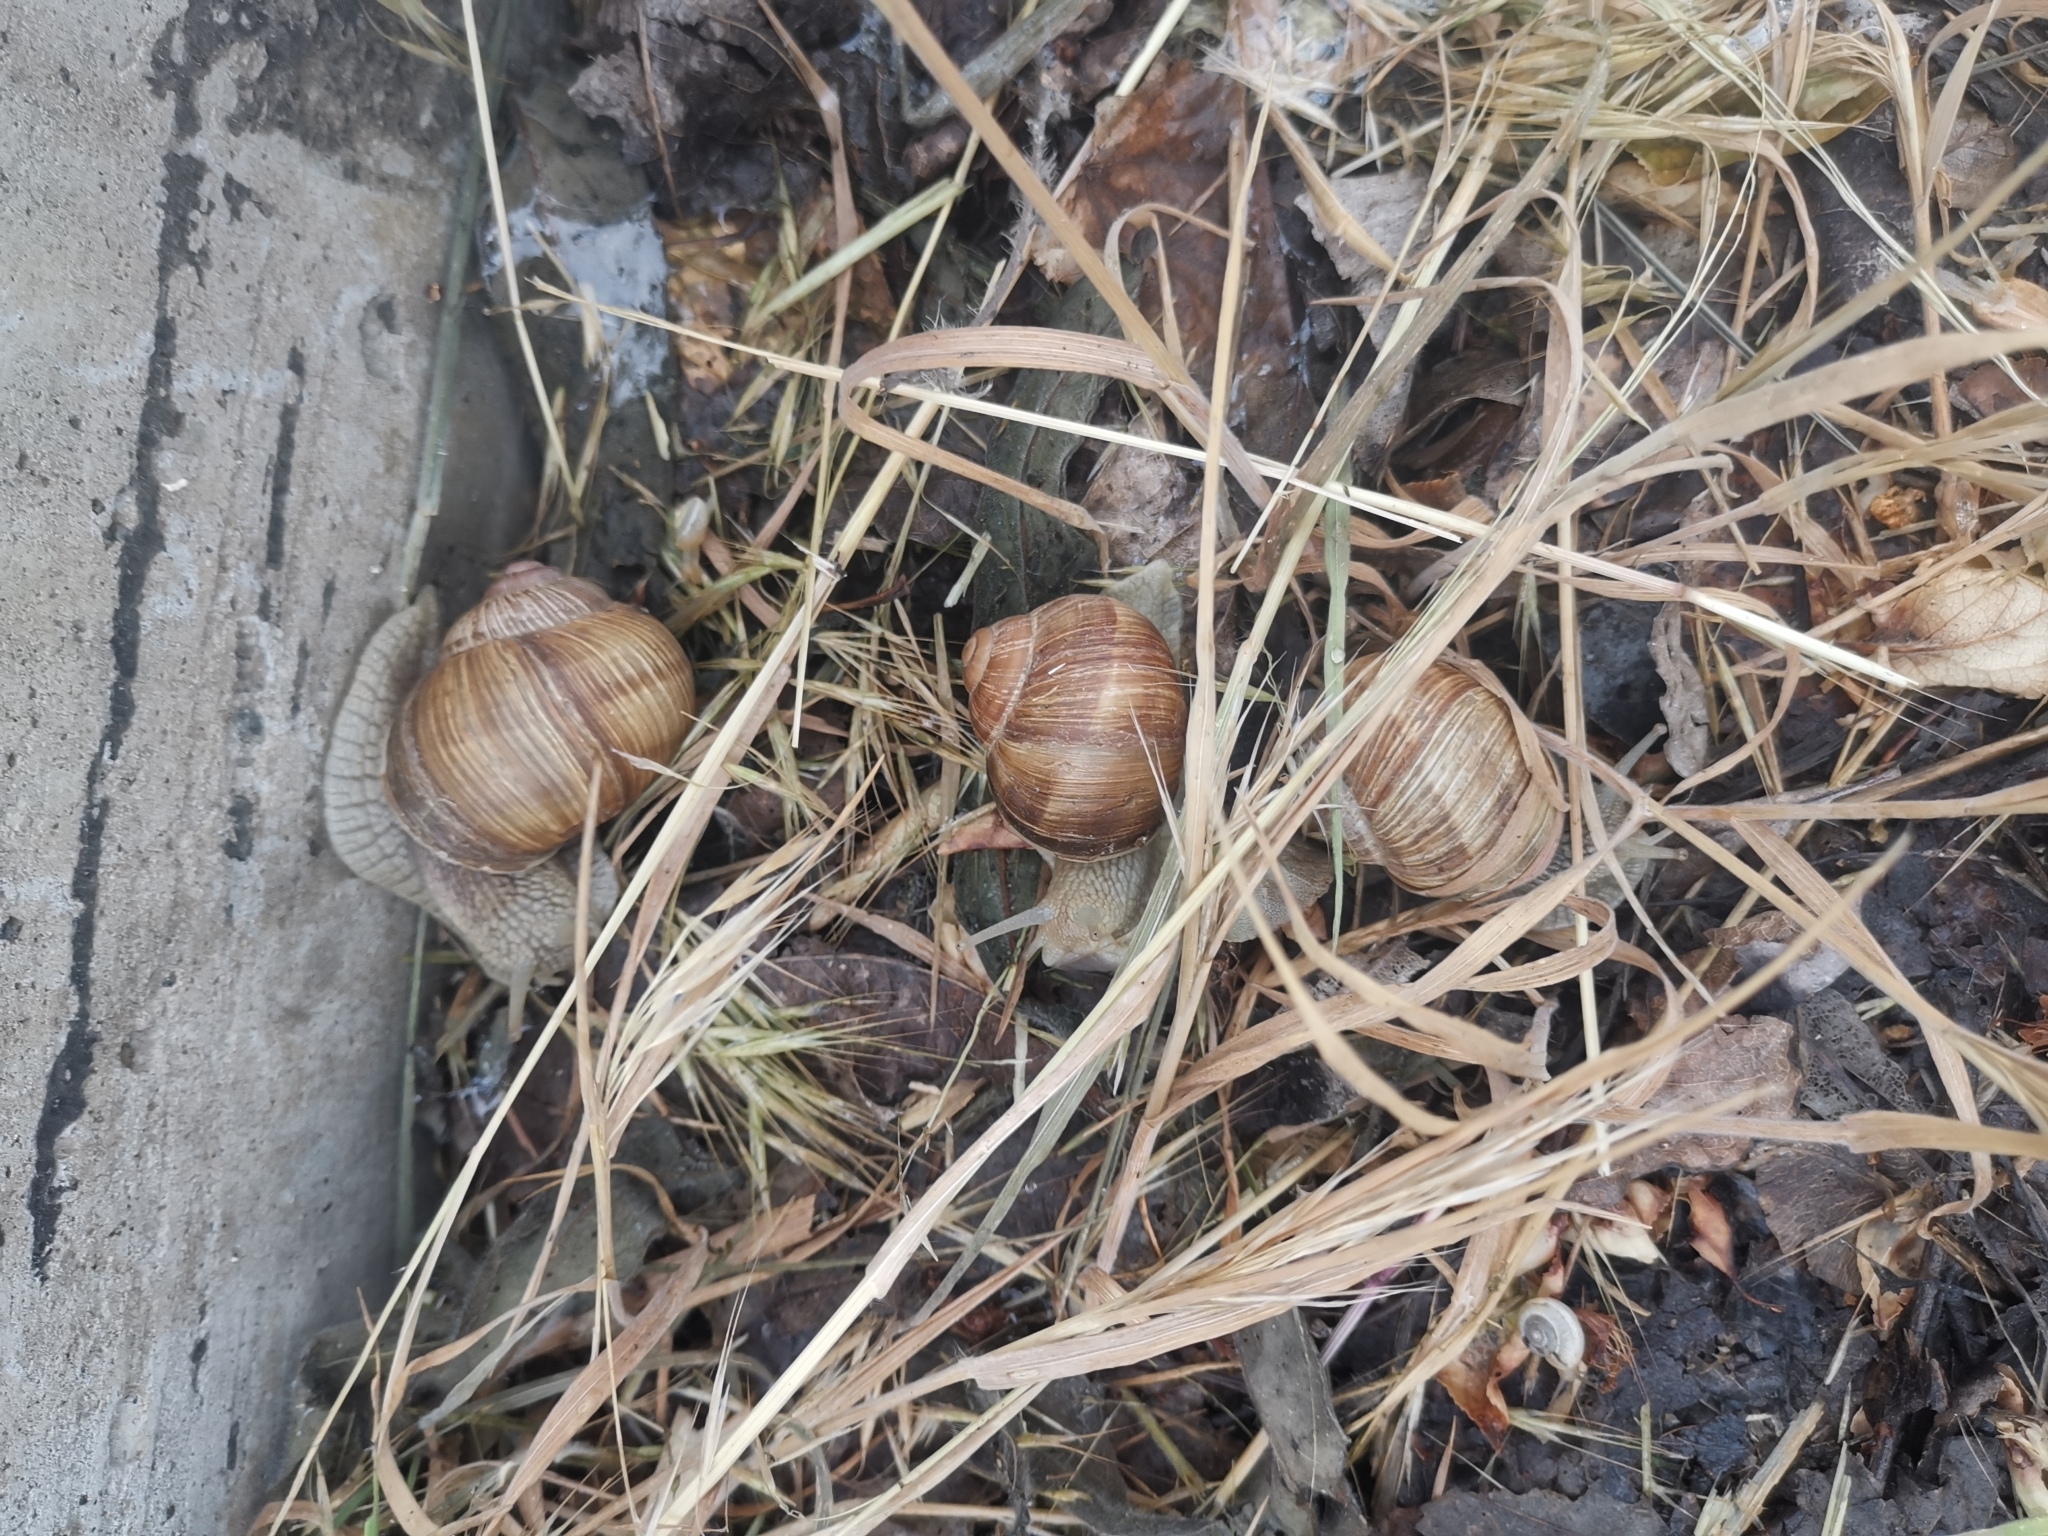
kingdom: Animalia
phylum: Mollusca
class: Gastropoda
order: Stylommatophora
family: Helicidae
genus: Helix
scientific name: Helix pomatia
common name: Roman snail
